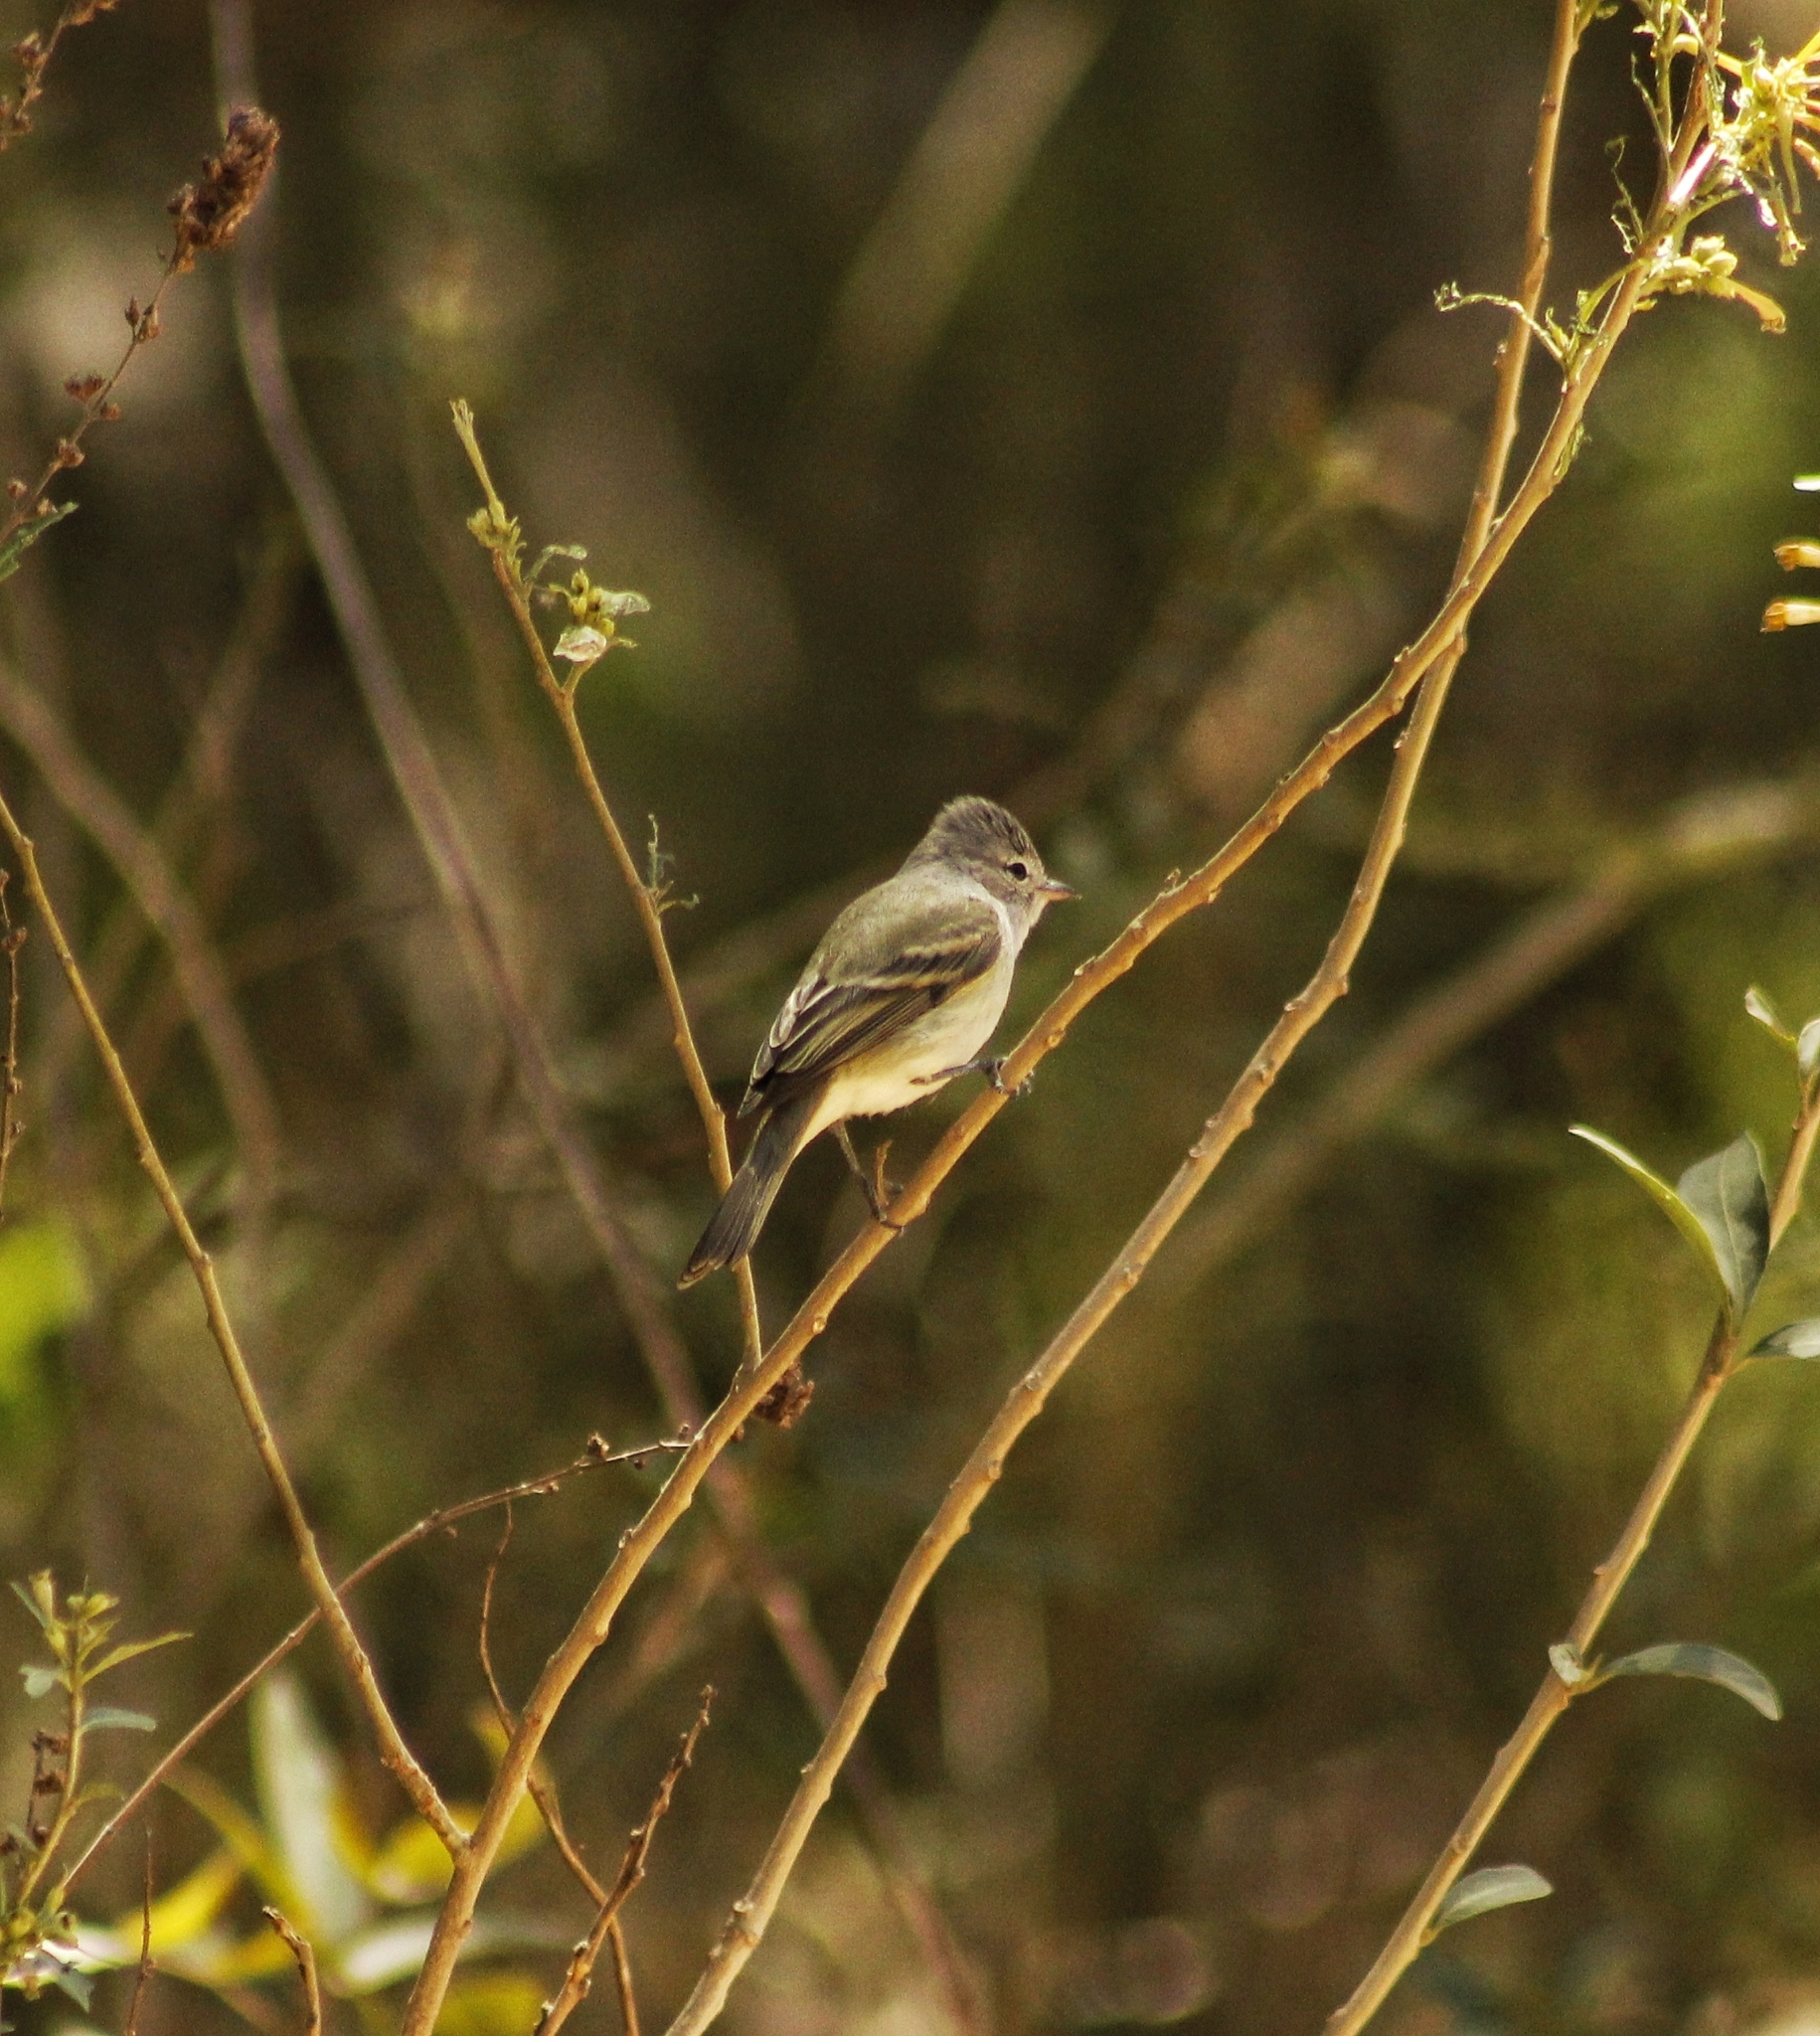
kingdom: Animalia
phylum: Chordata
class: Aves
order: Passeriformes
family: Tyrannidae
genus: Camptostoma
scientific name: Camptostoma obsoletum
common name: Southern beardless-tyrannulet
